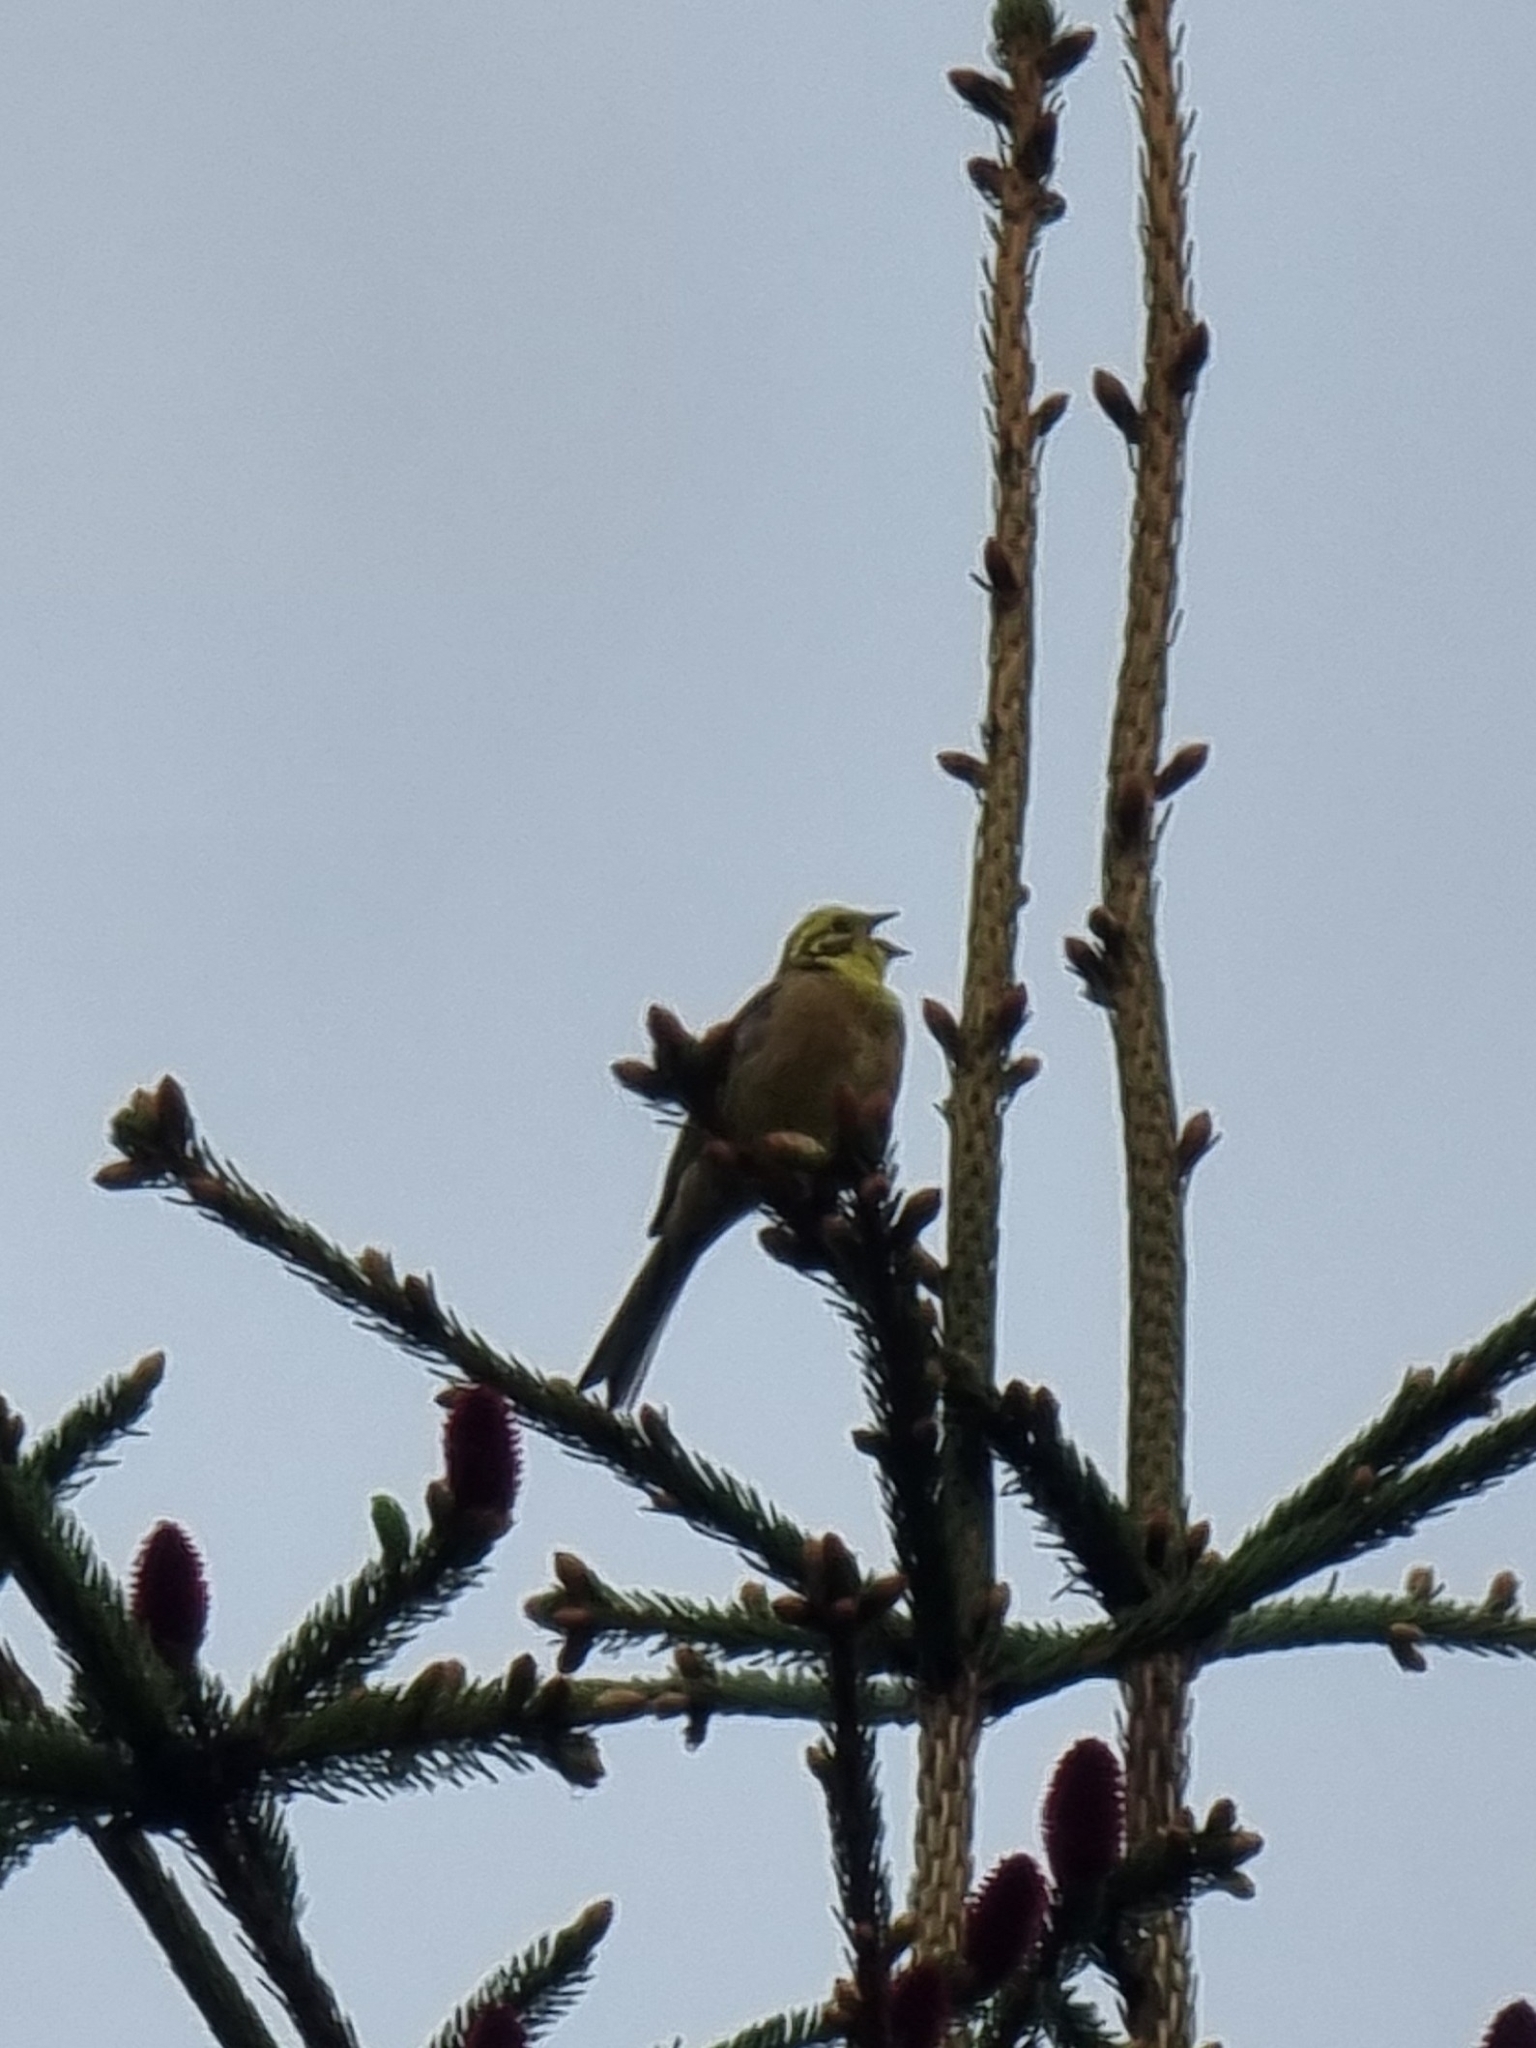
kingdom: Animalia
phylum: Chordata
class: Aves
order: Passeriformes
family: Emberizidae
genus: Emberiza
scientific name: Emberiza citrinella
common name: Yellowhammer
